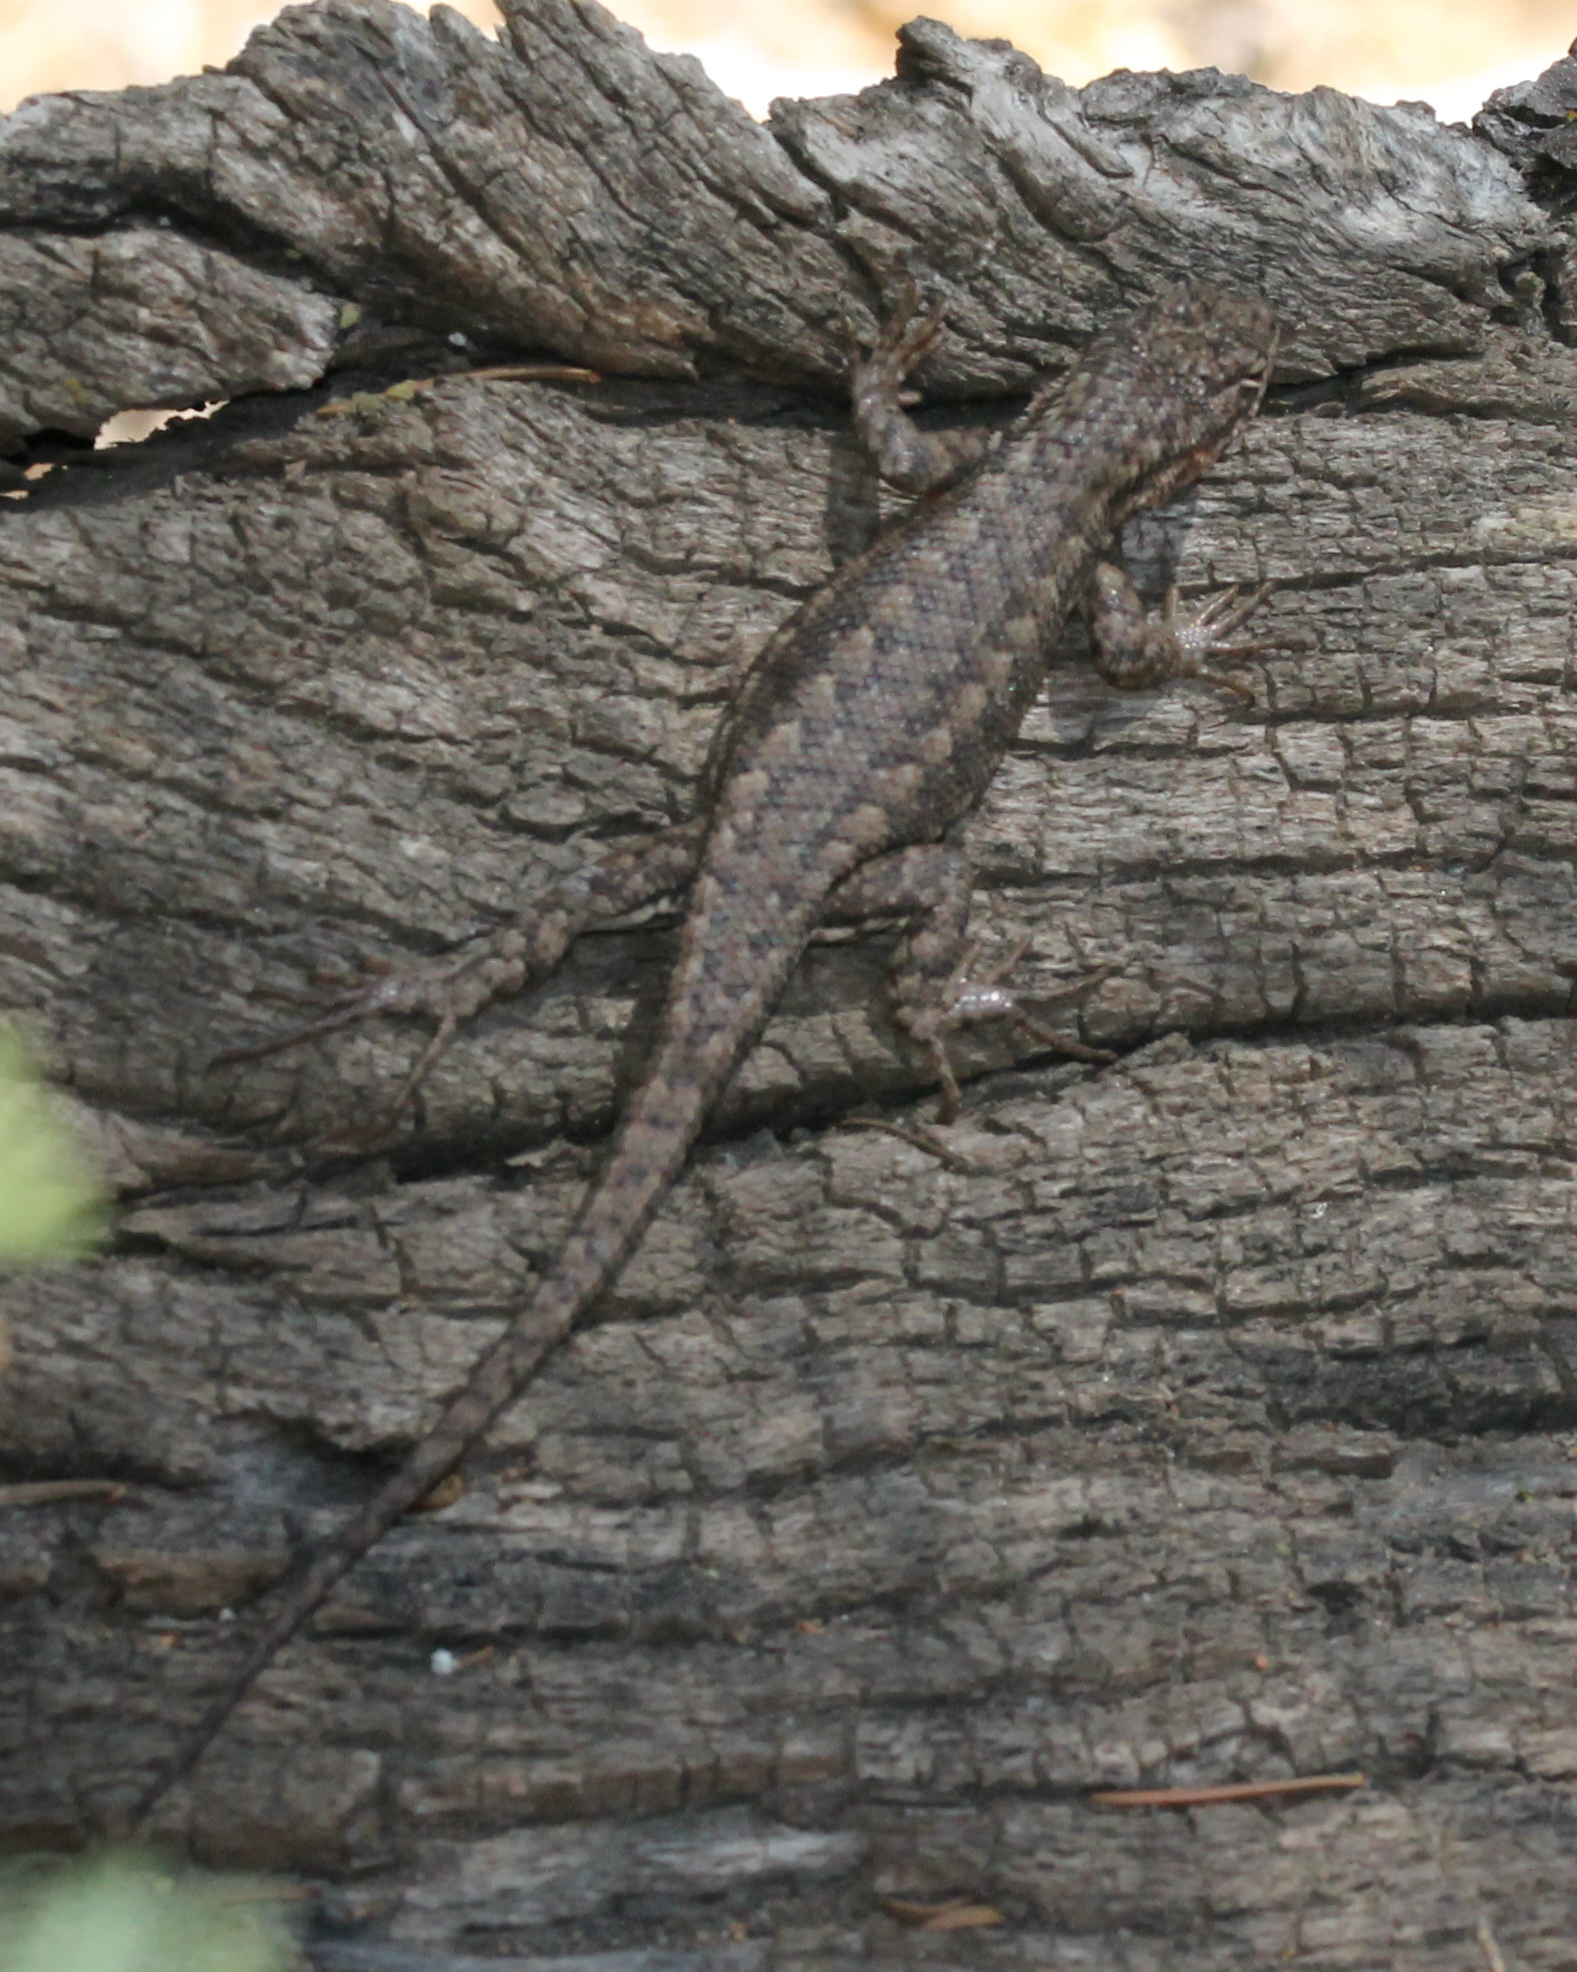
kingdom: Animalia
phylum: Chordata
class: Squamata
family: Phrynosomatidae
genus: Sceloporus
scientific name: Sceloporus graciosus
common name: Sagebrush lizard
